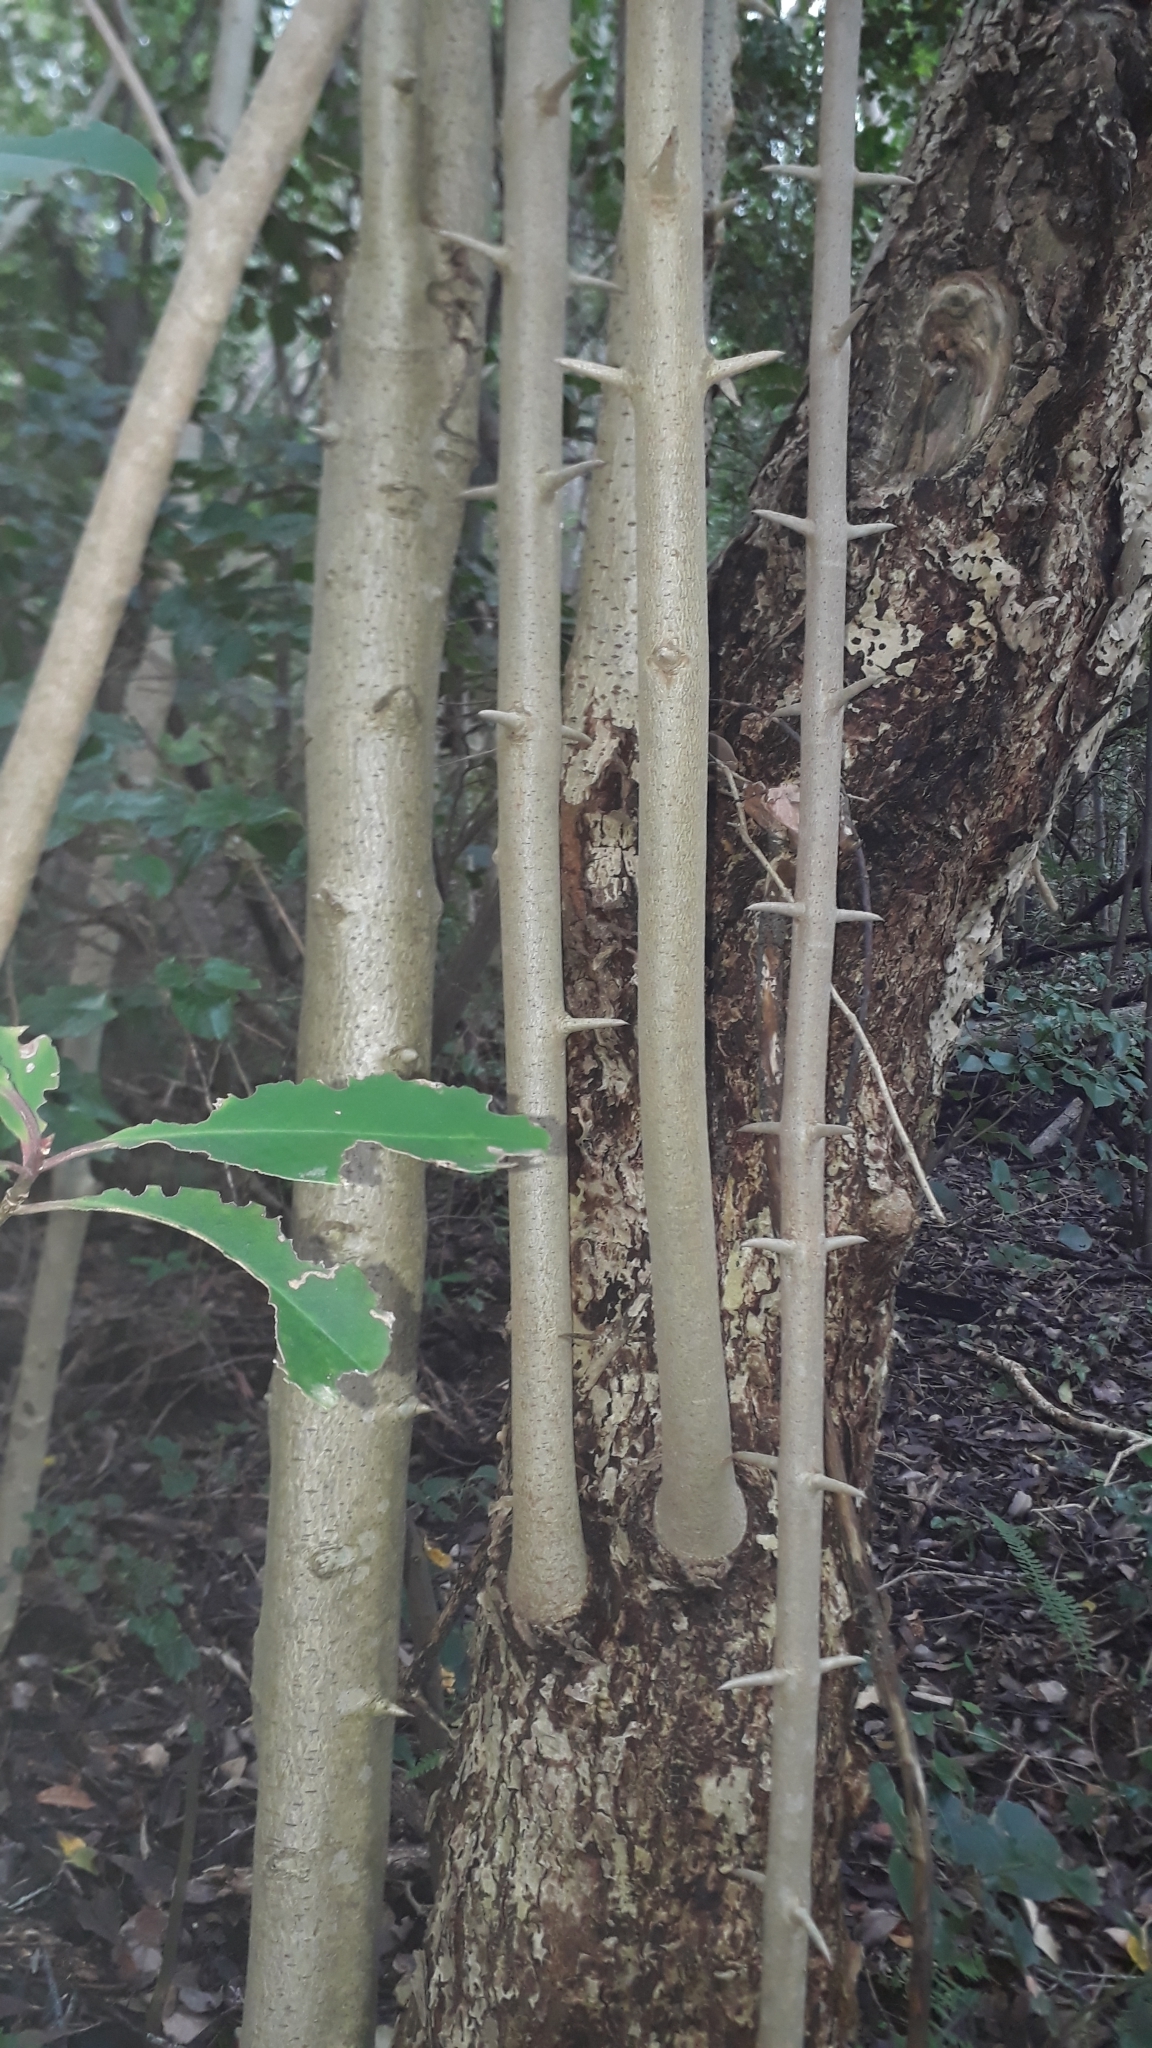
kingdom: Plantae
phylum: Tracheophyta
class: Magnoliopsida
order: Gentianales
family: Rubiaceae
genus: Canthium
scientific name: Canthium inerme
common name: Unarmed turkey-berry
